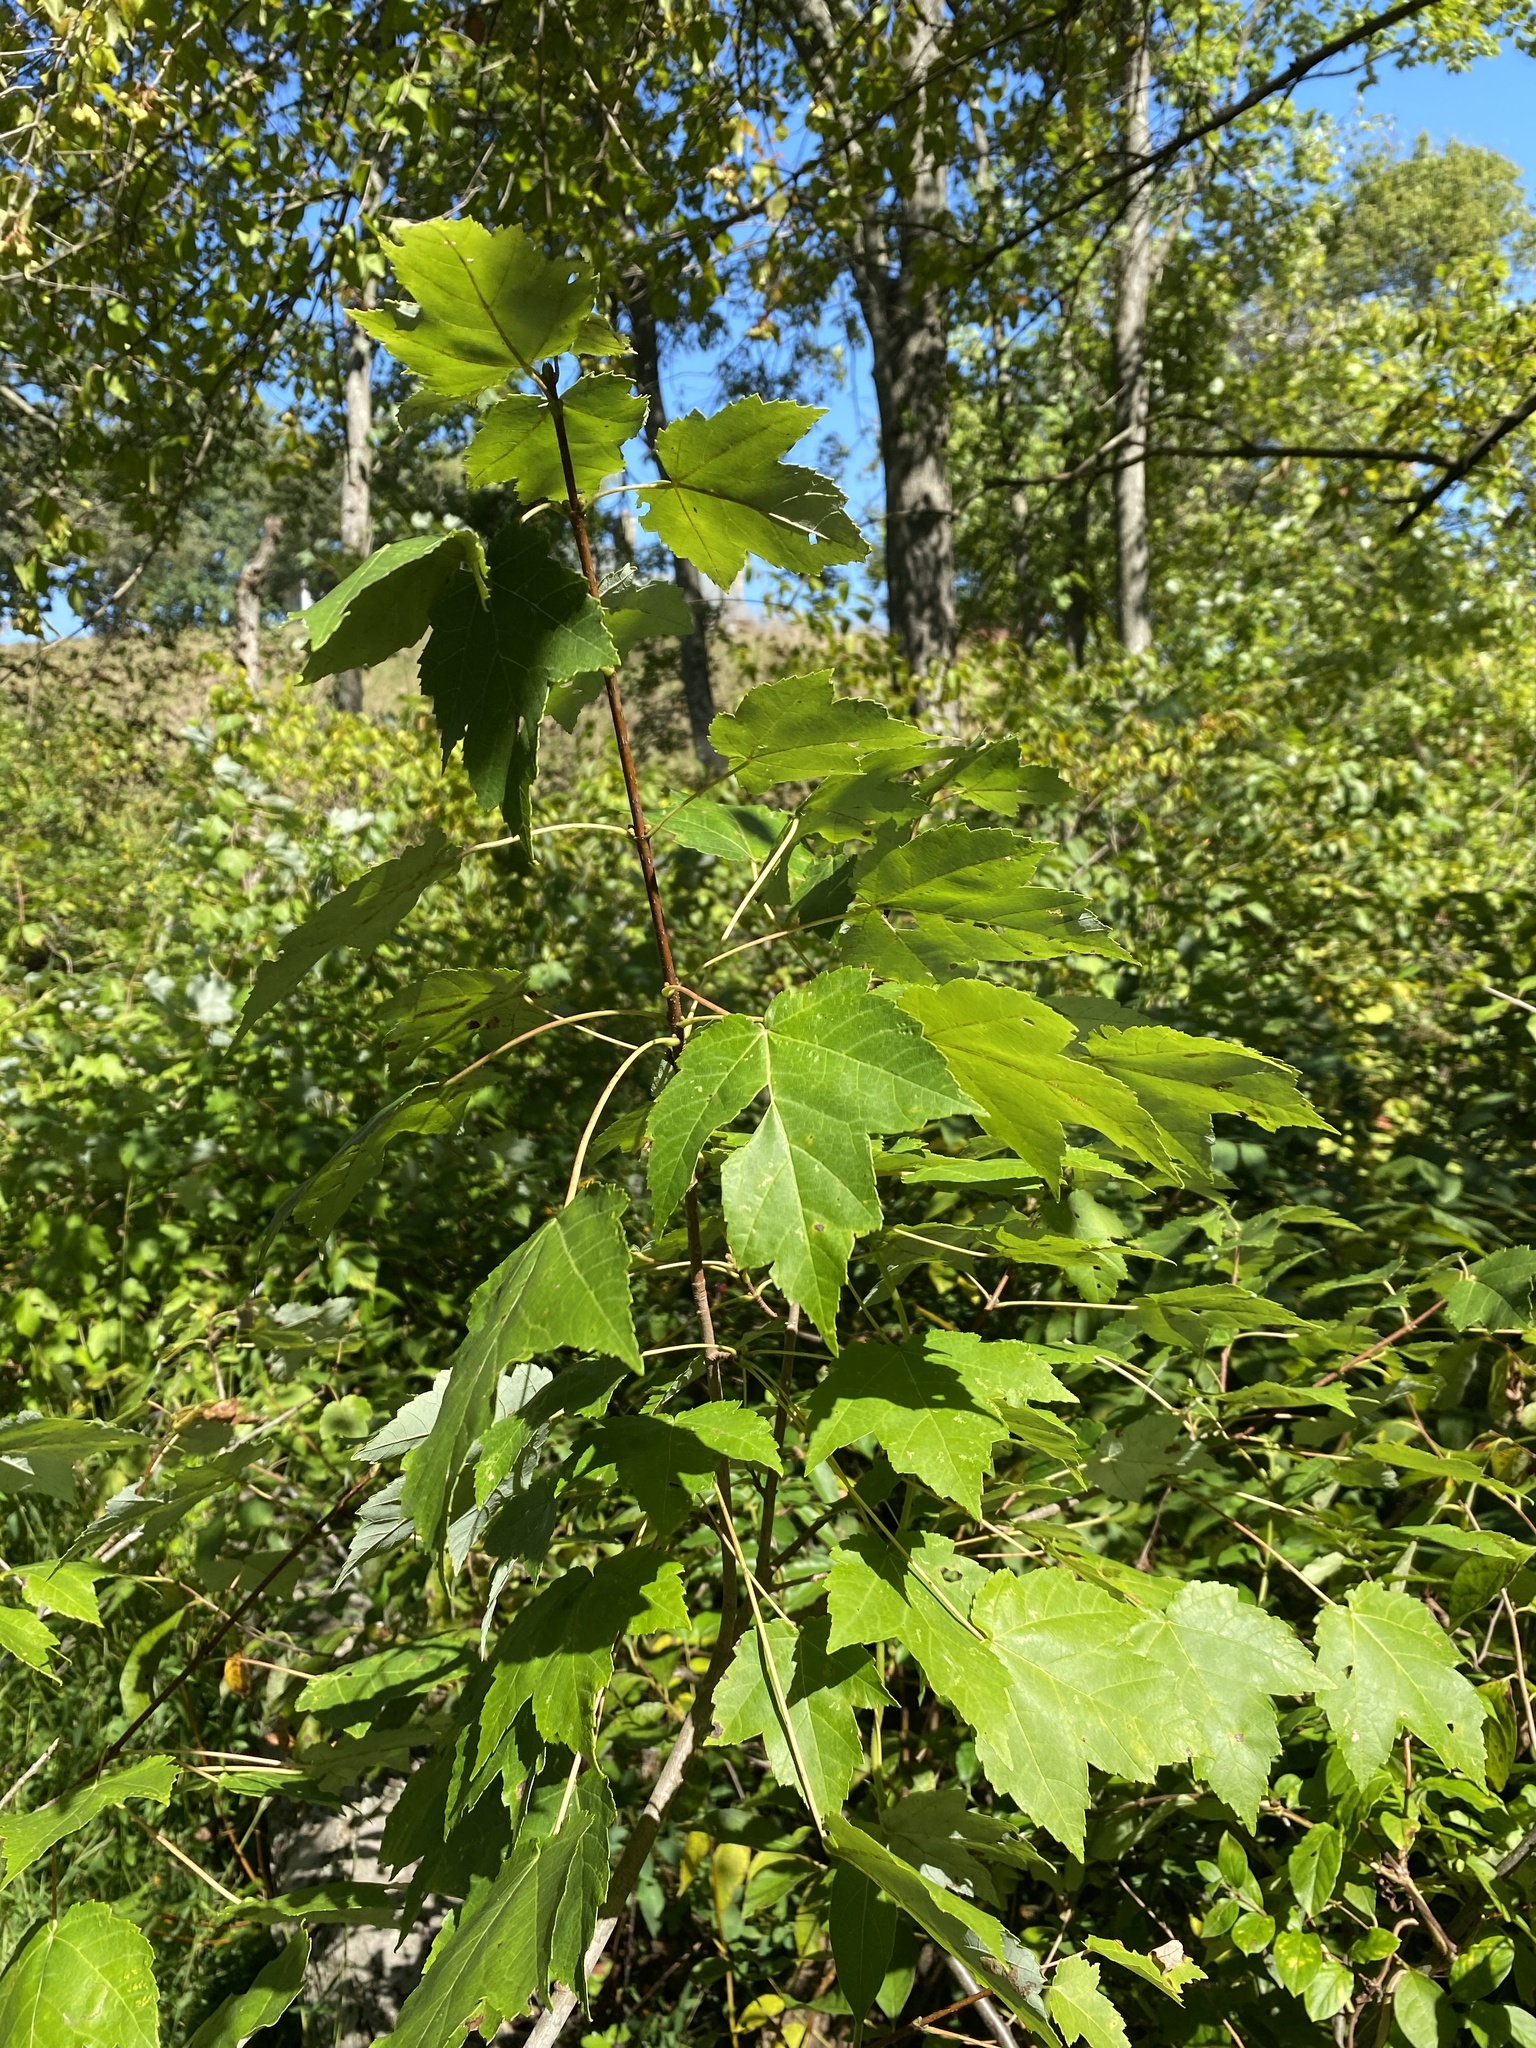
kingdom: Plantae
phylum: Tracheophyta
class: Magnoliopsida
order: Sapindales
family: Sapindaceae
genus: Acer
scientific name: Acer rubrum
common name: Red maple
